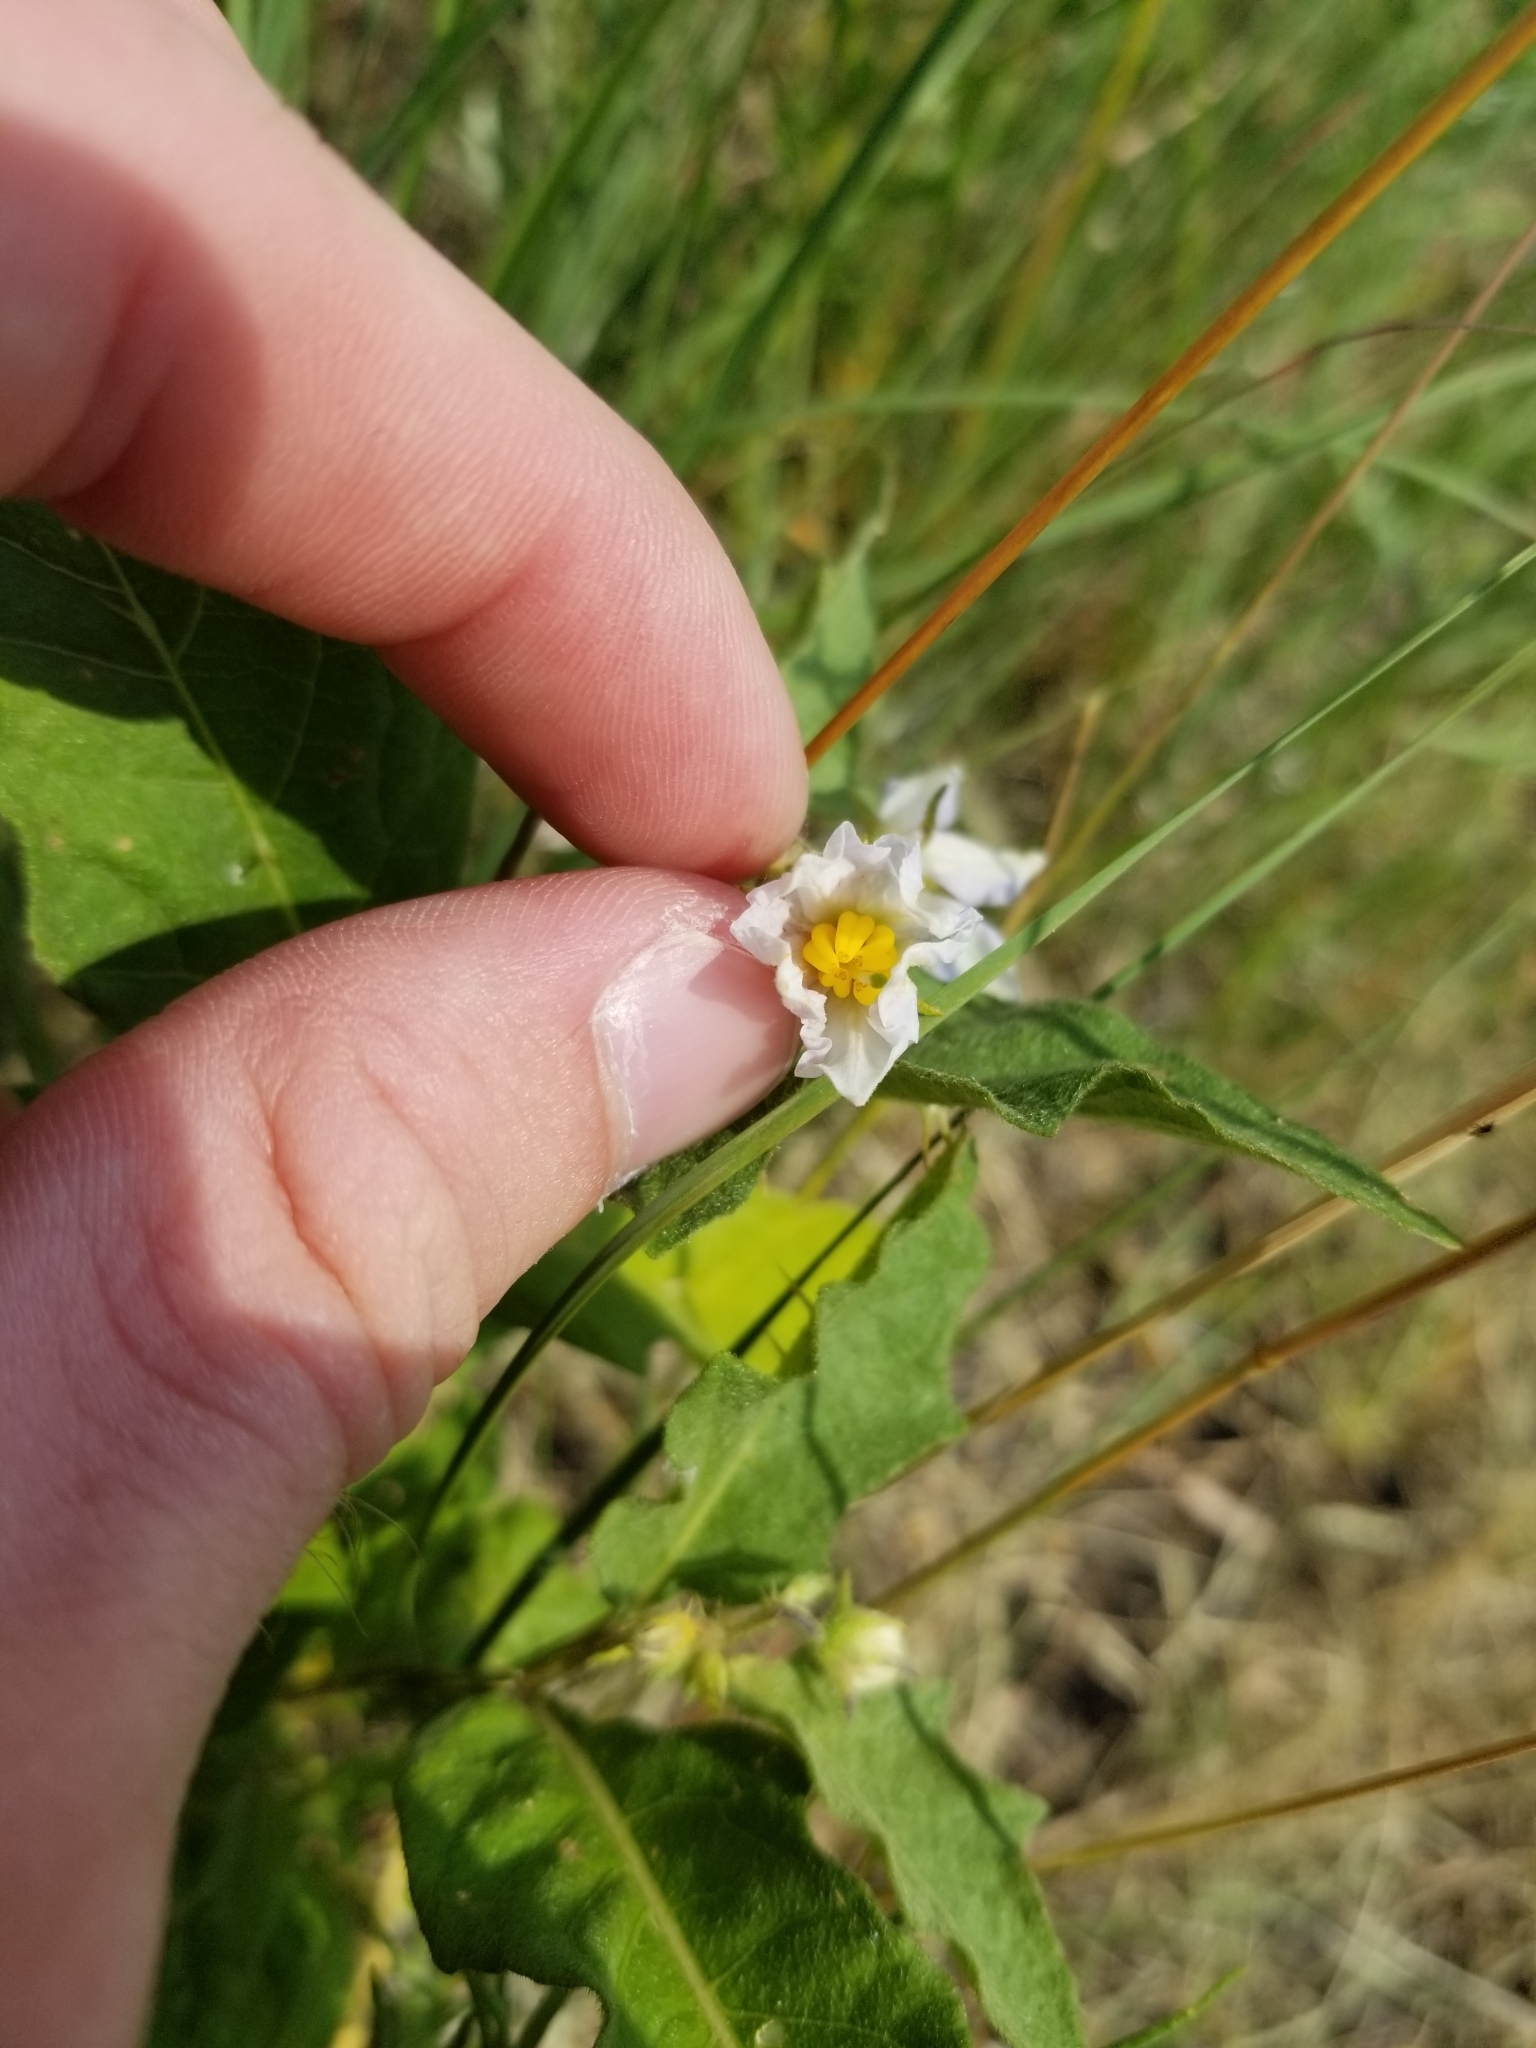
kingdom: Plantae
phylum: Tracheophyta
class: Magnoliopsida
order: Solanales
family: Solanaceae
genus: Solanum
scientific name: Solanum carolinense
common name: Horse-nettle
